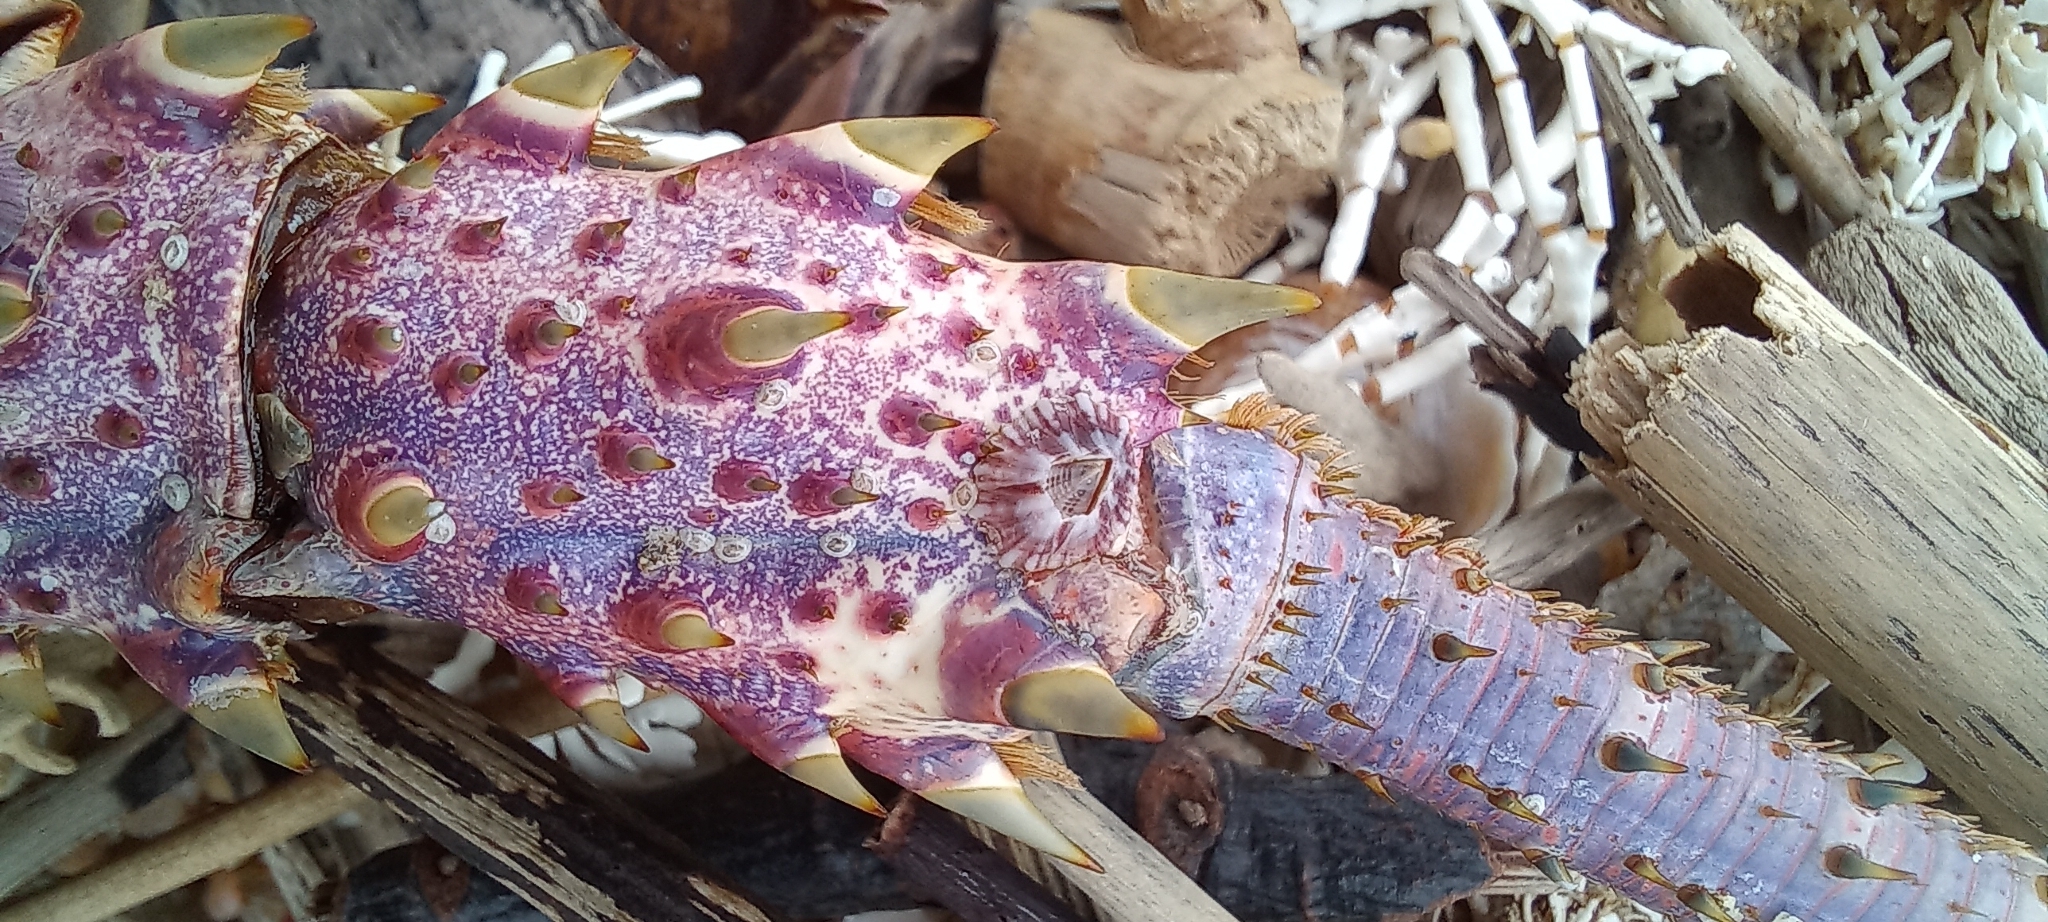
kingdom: Animalia
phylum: Arthropoda
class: Malacostraca
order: Decapoda
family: Palinuridae
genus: Panulirus
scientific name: Panulirus homarus
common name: Scalloped spiny lobster
